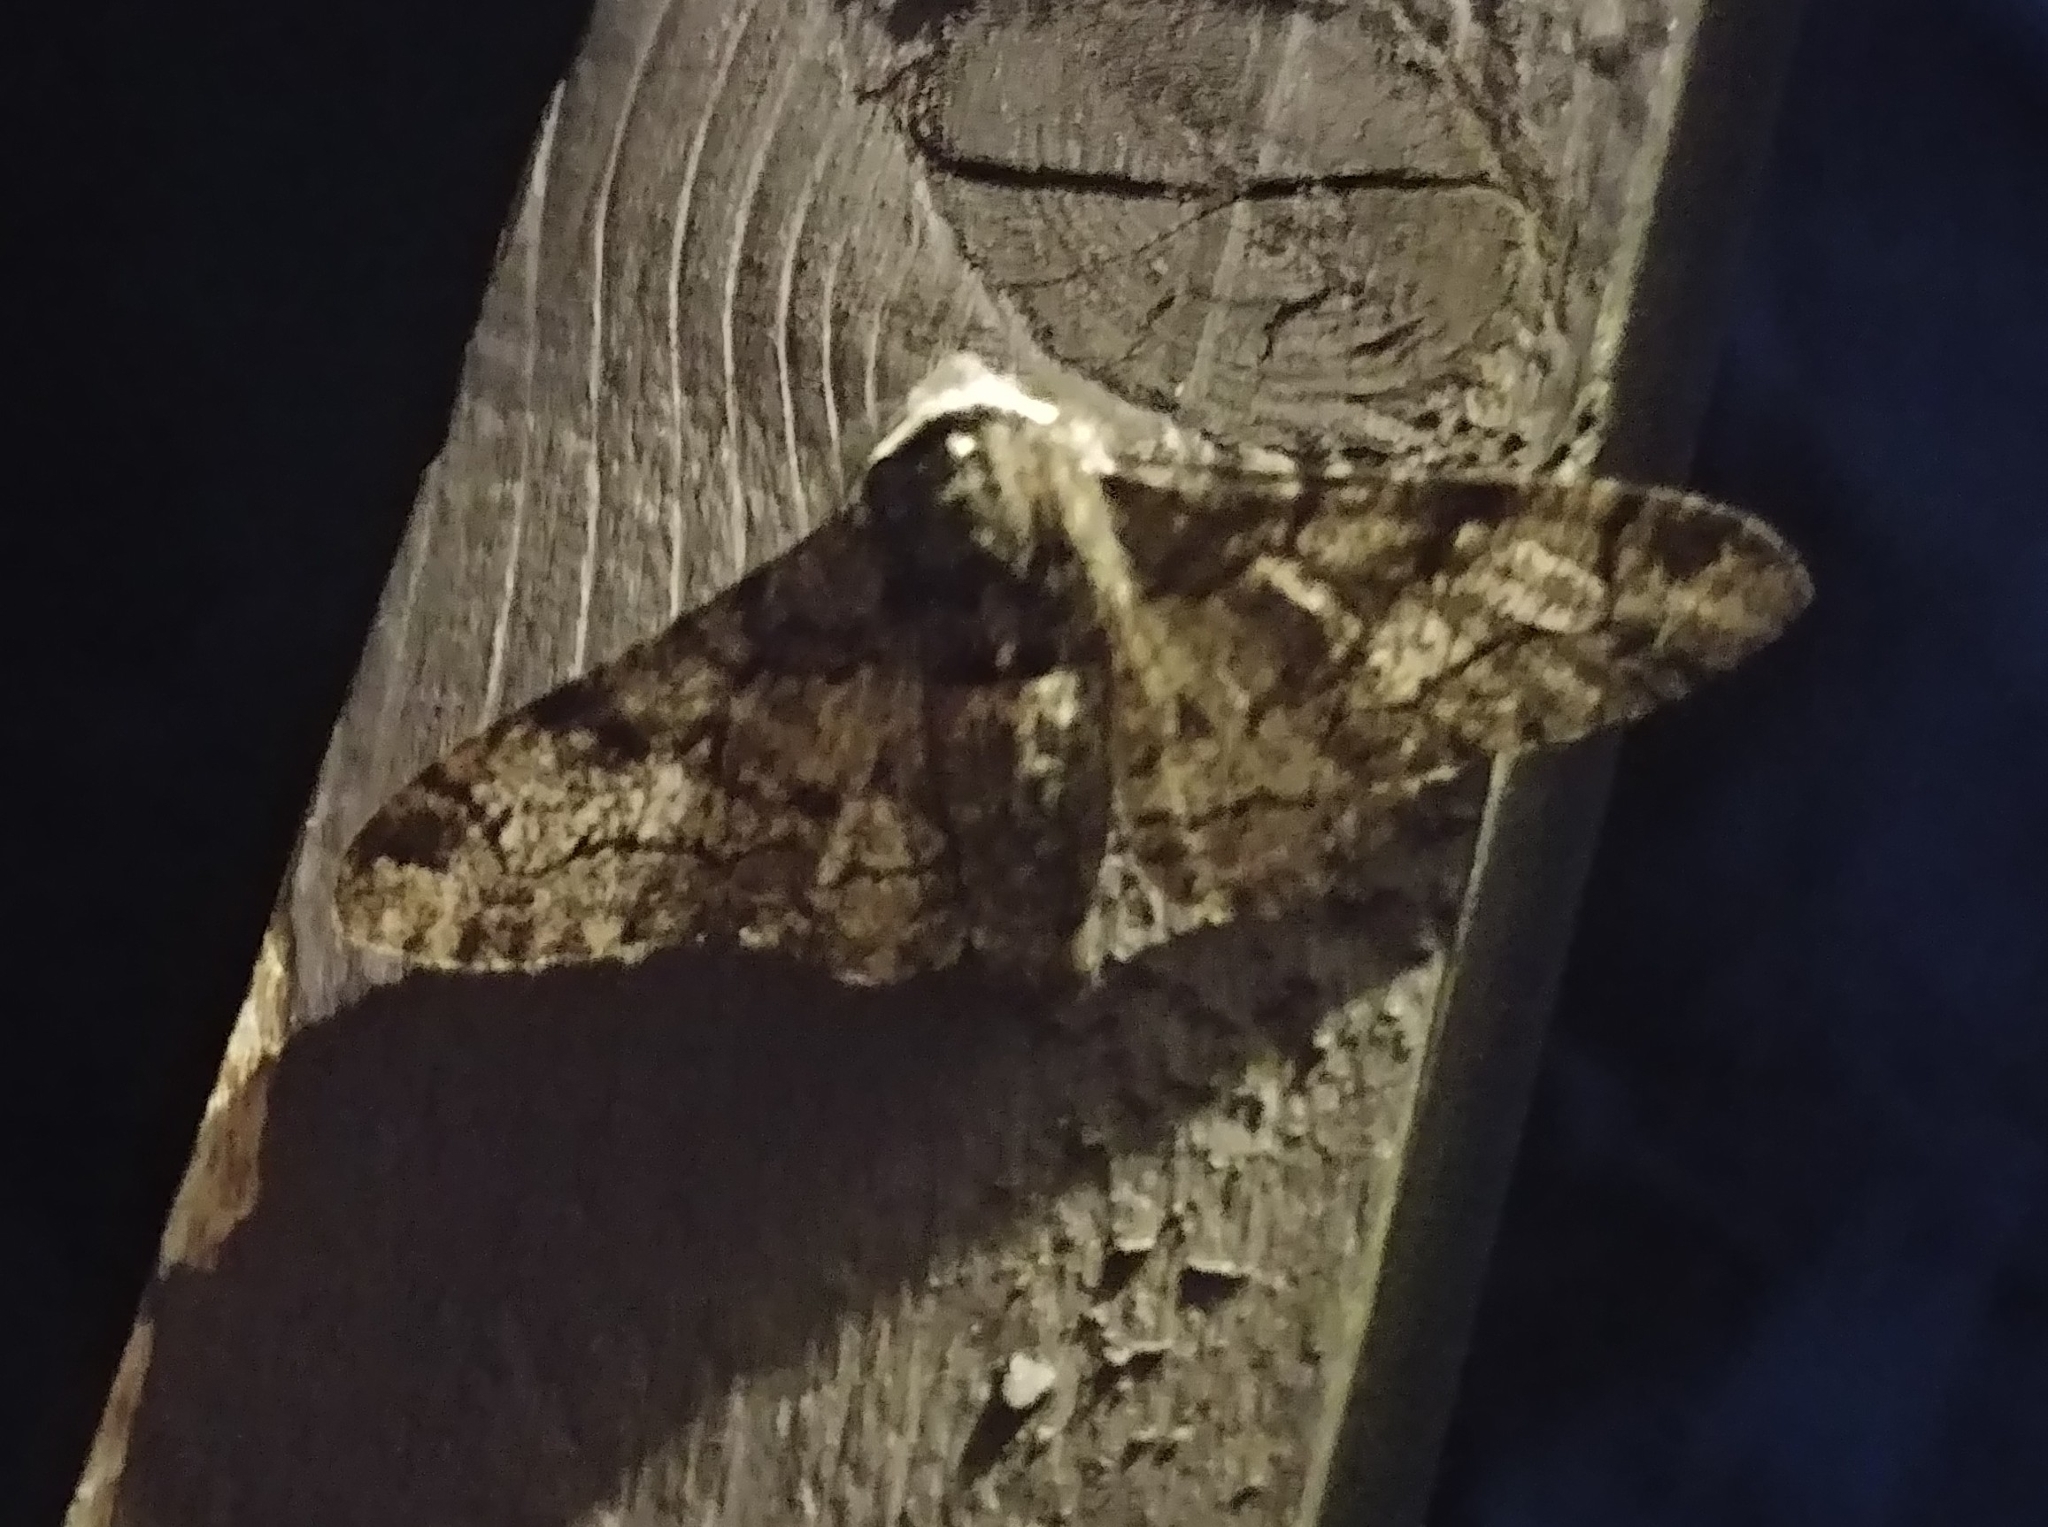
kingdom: Animalia
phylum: Arthropoda
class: Insecta
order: Lepidoptera
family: Geometridae
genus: Biston
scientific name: Biston betularia
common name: Peppered moth
